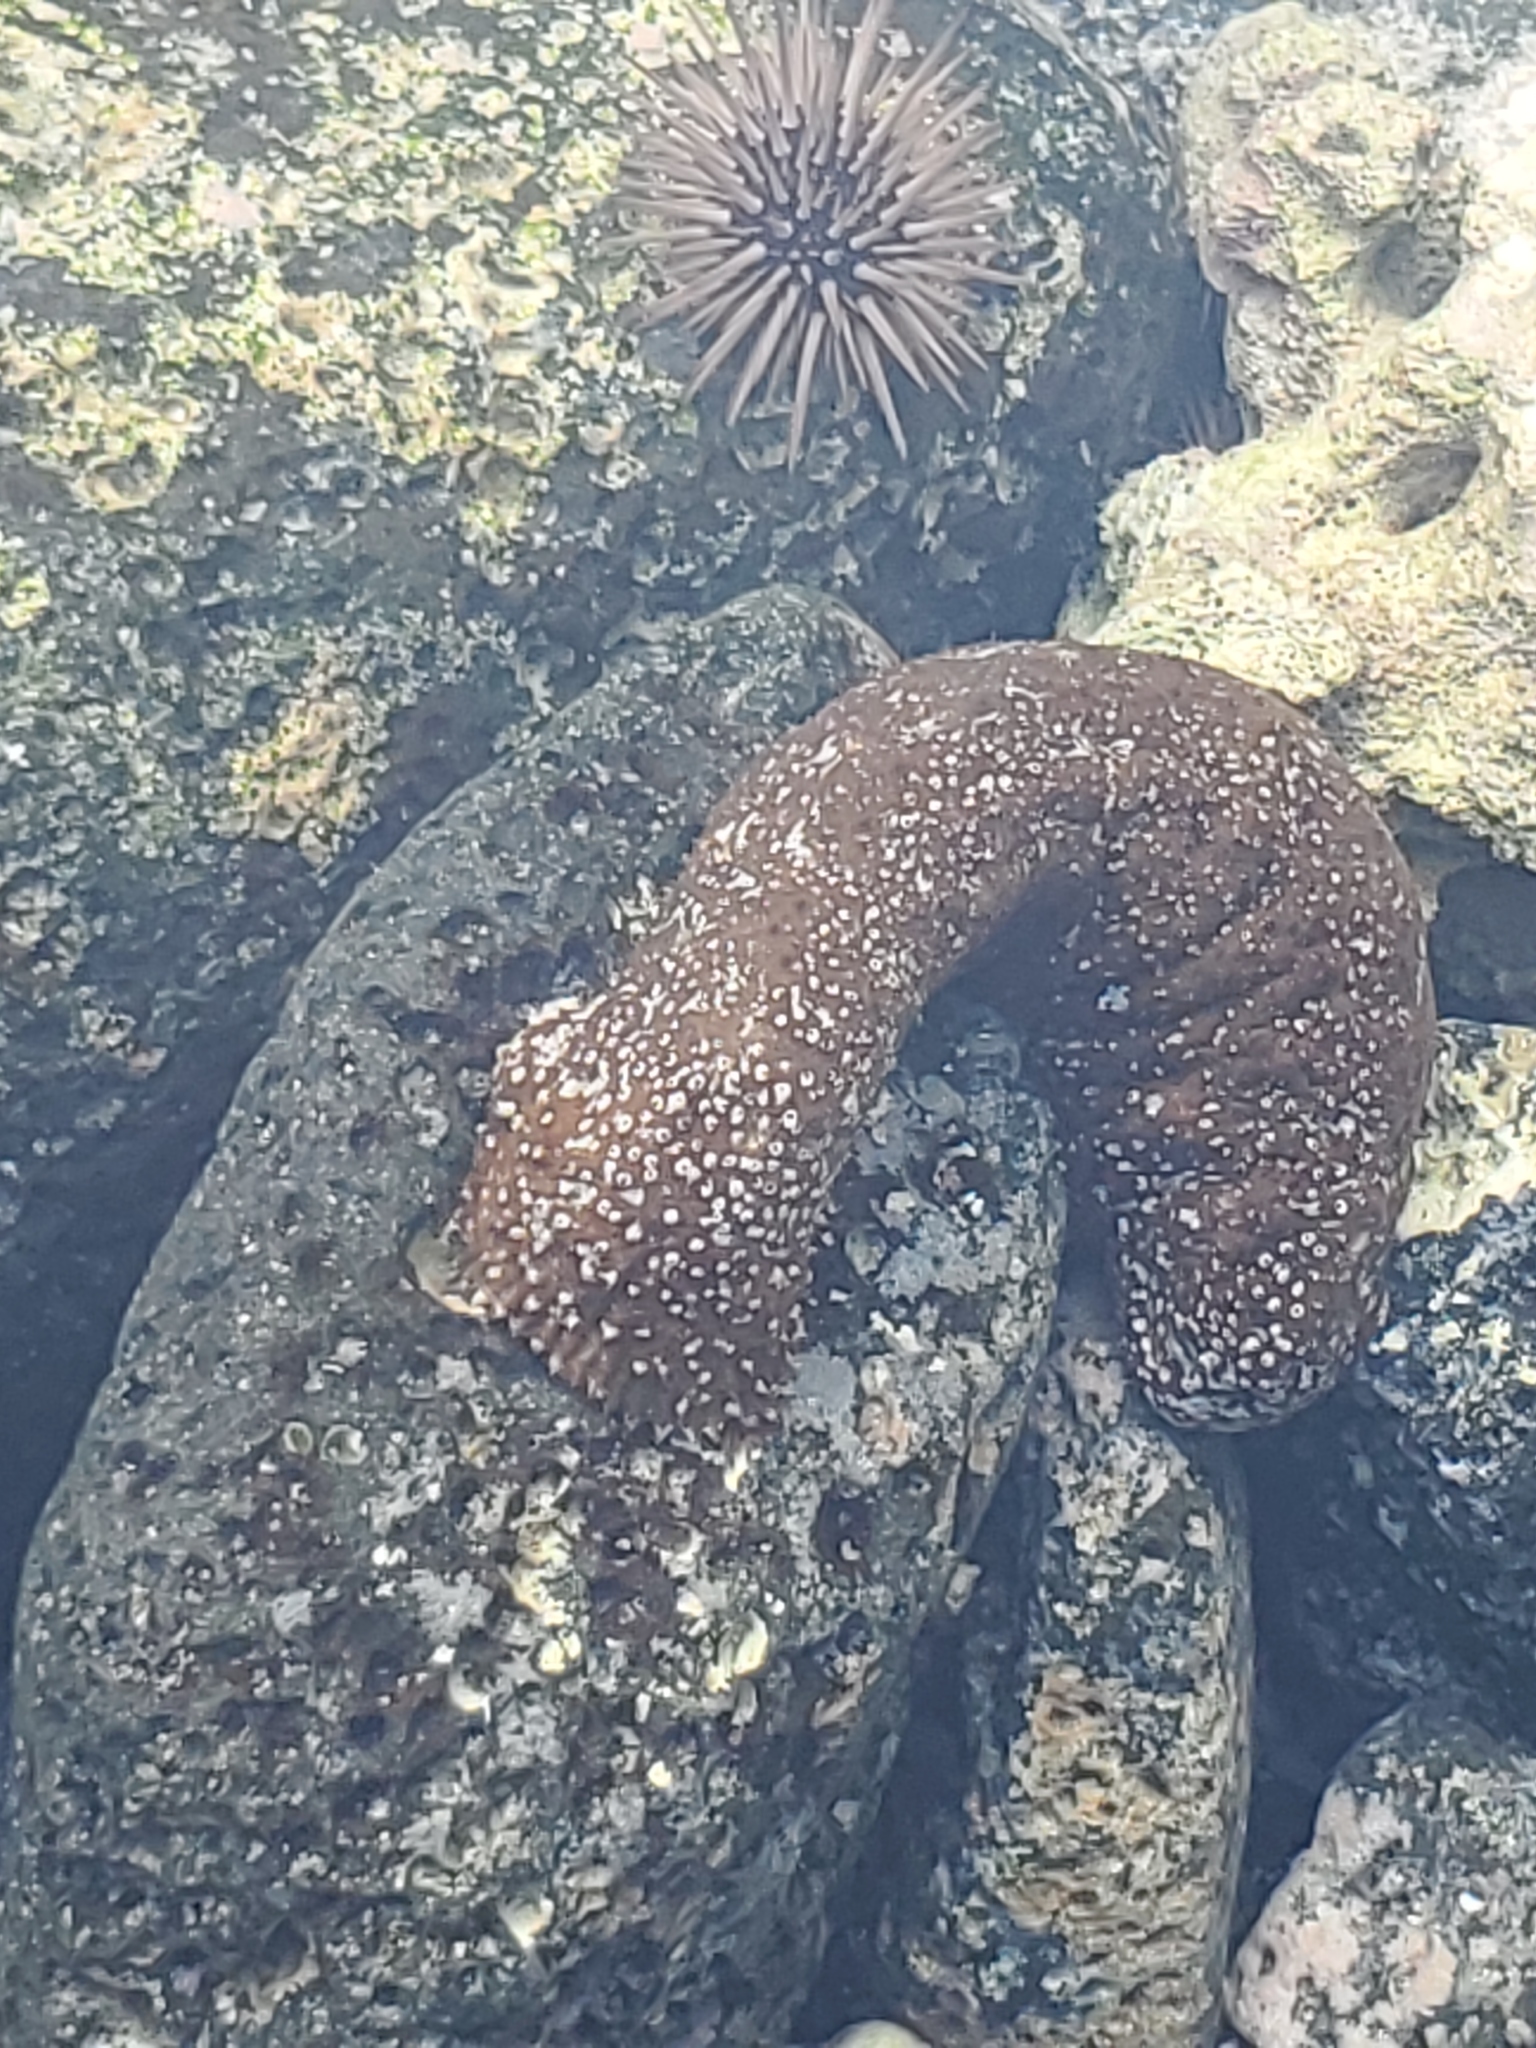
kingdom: Animalia
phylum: Echinodermata
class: Holothuroidea
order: Holothuriida
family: Holothuriidae
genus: Actinopyga
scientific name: Actinopyga varians
